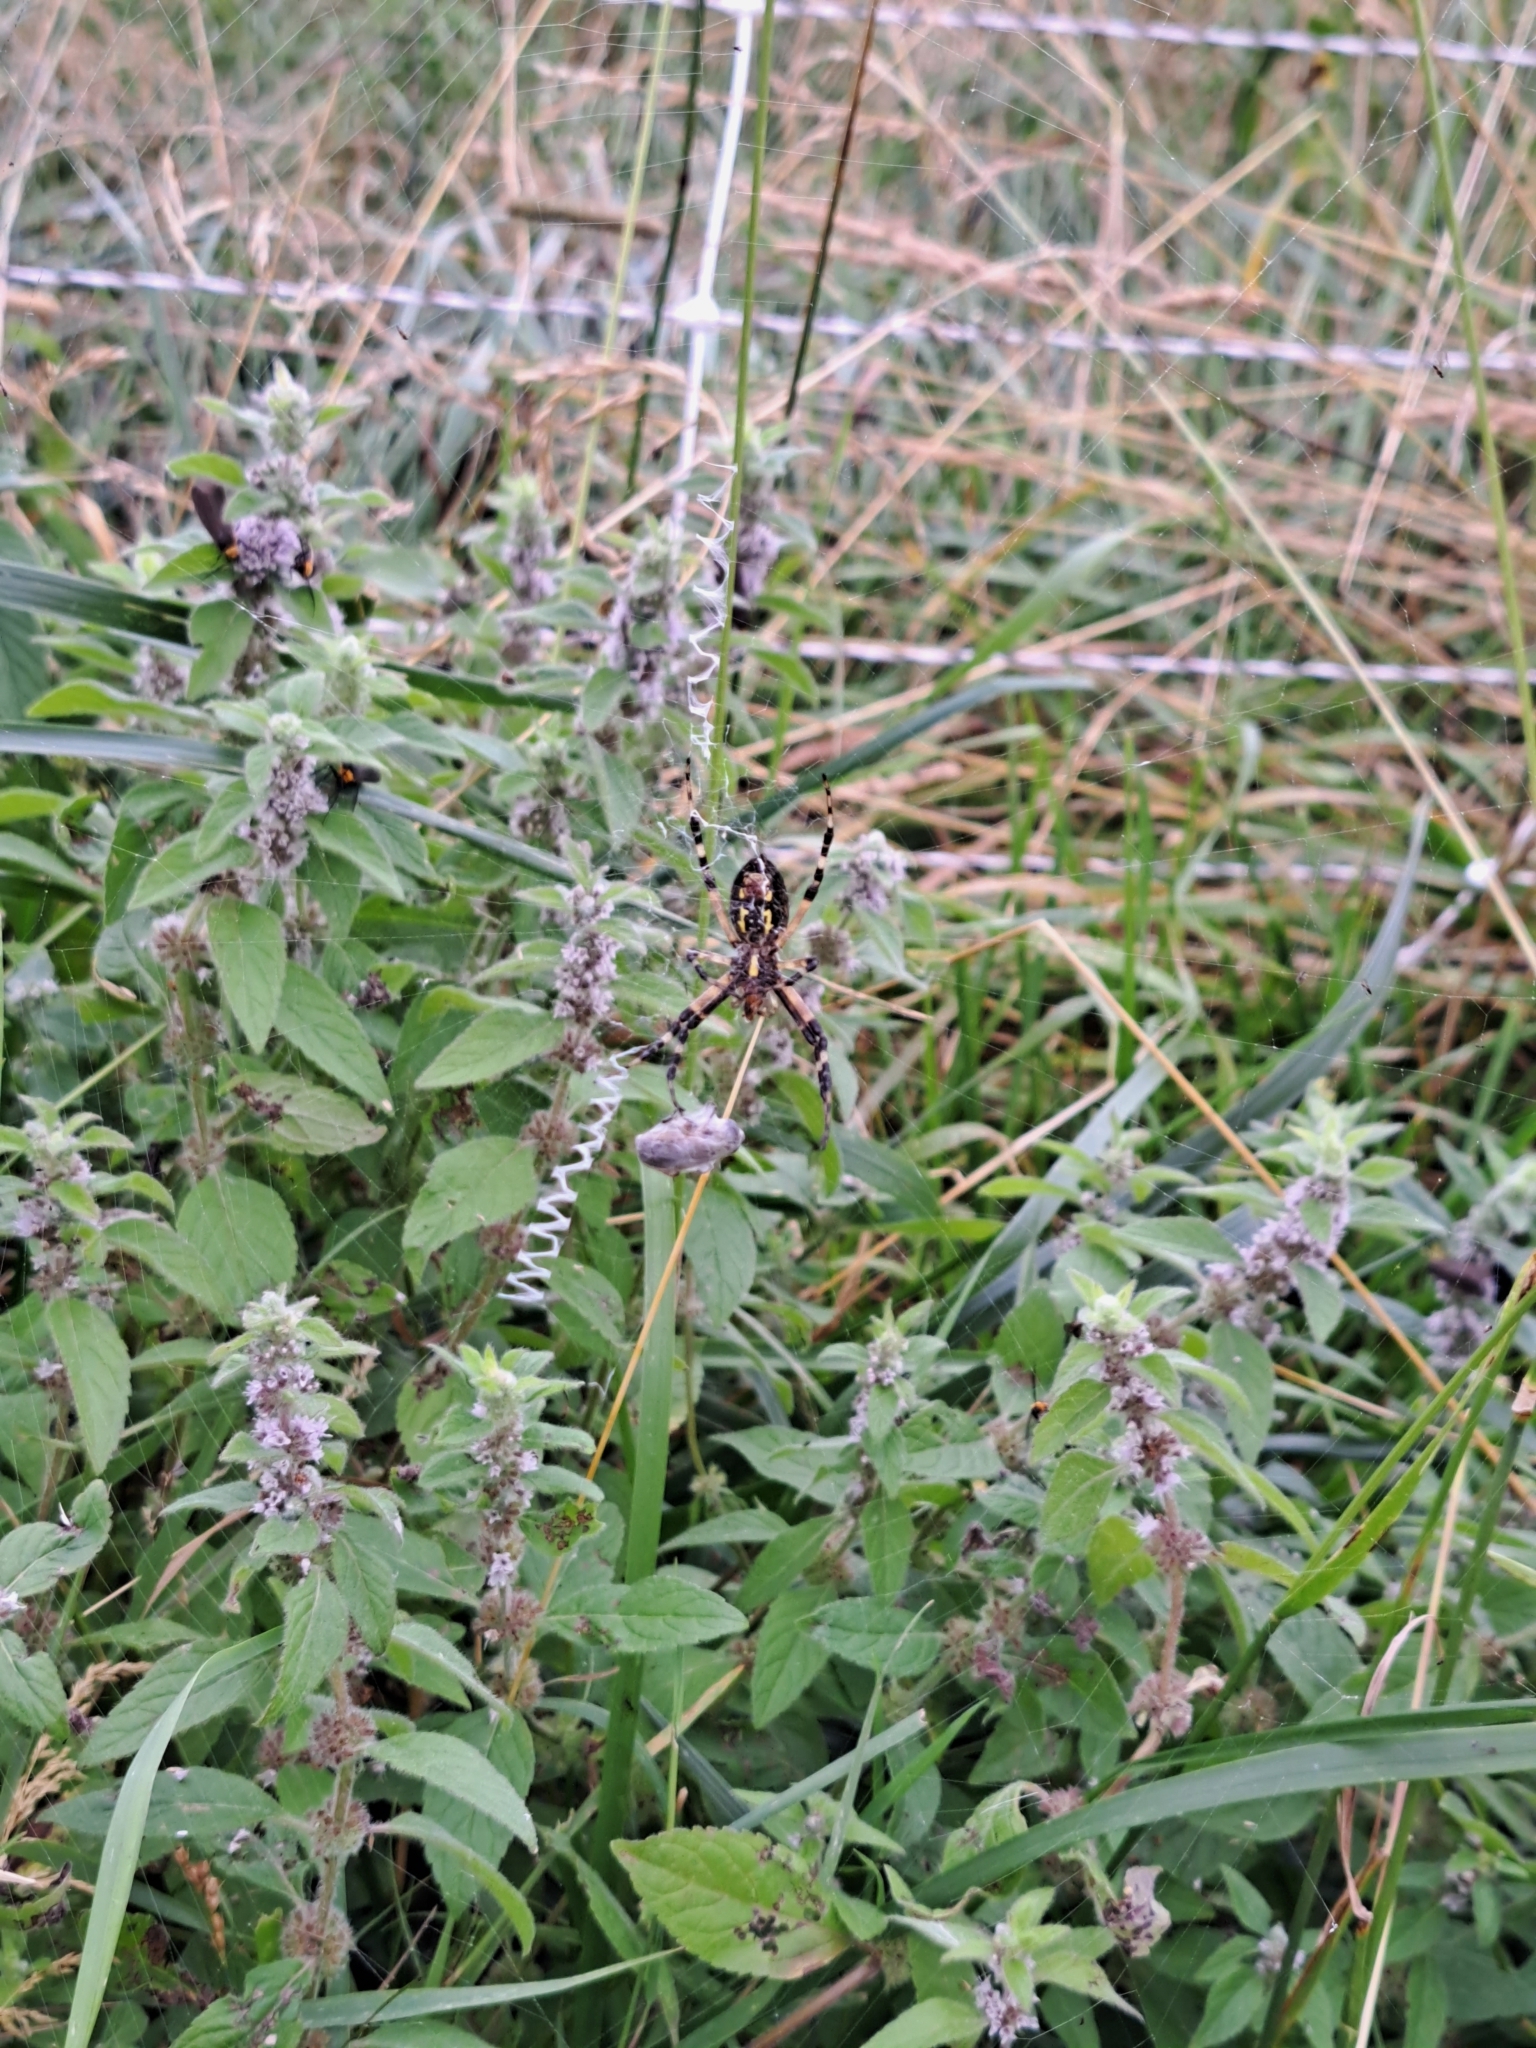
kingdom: Animalia
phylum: Arthropoda
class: Arachnida
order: Araneae
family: Araneidae
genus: Argiope
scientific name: Argiope aurantia
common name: Orb weavers
